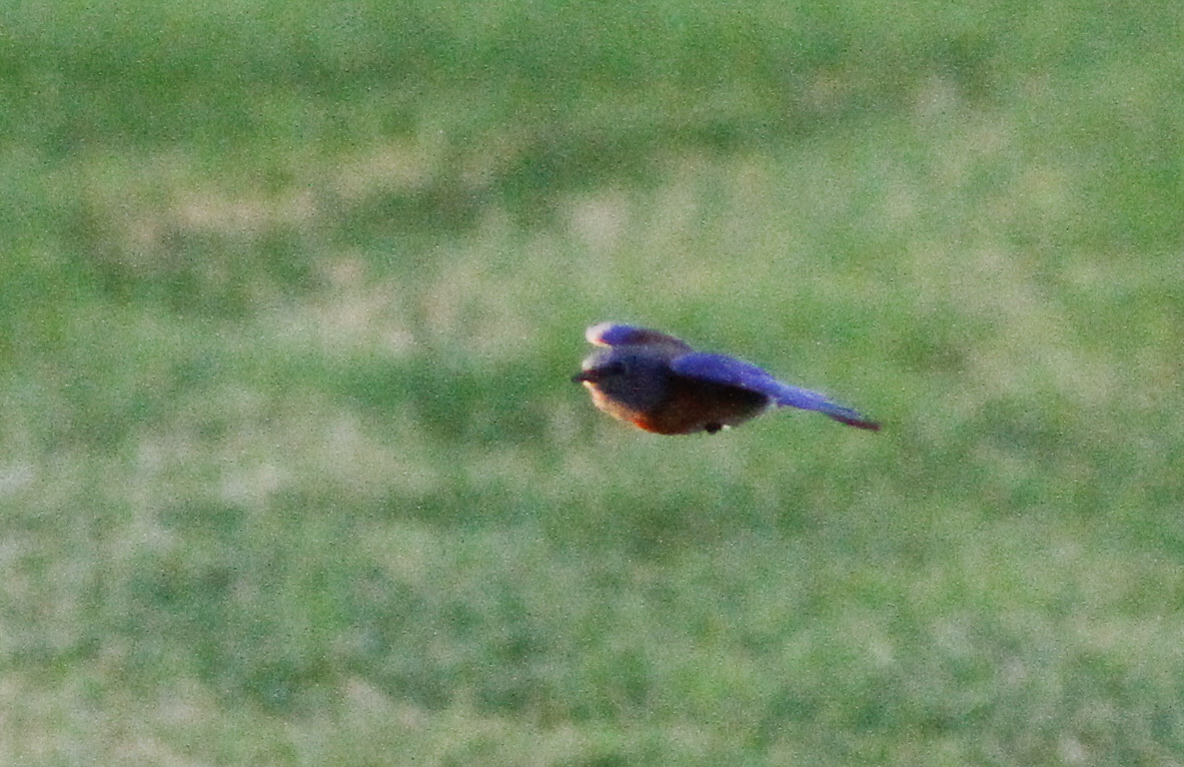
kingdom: Animalia
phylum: Chordata
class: Aves
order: Passeriformes
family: Turdidae
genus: Sialia
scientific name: Sialia mexicana
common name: Western bluebird
